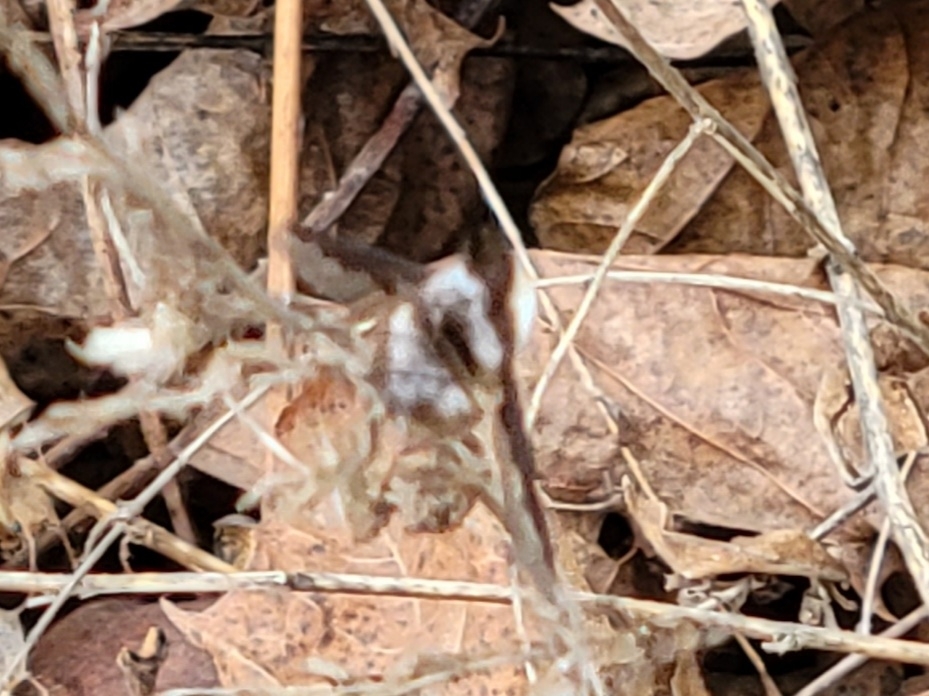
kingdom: Animalia
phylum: Arthropoda
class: Insecta
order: Diptera
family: Bombyliidae
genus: Bombylius
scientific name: Bombylius major
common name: Bee fly
